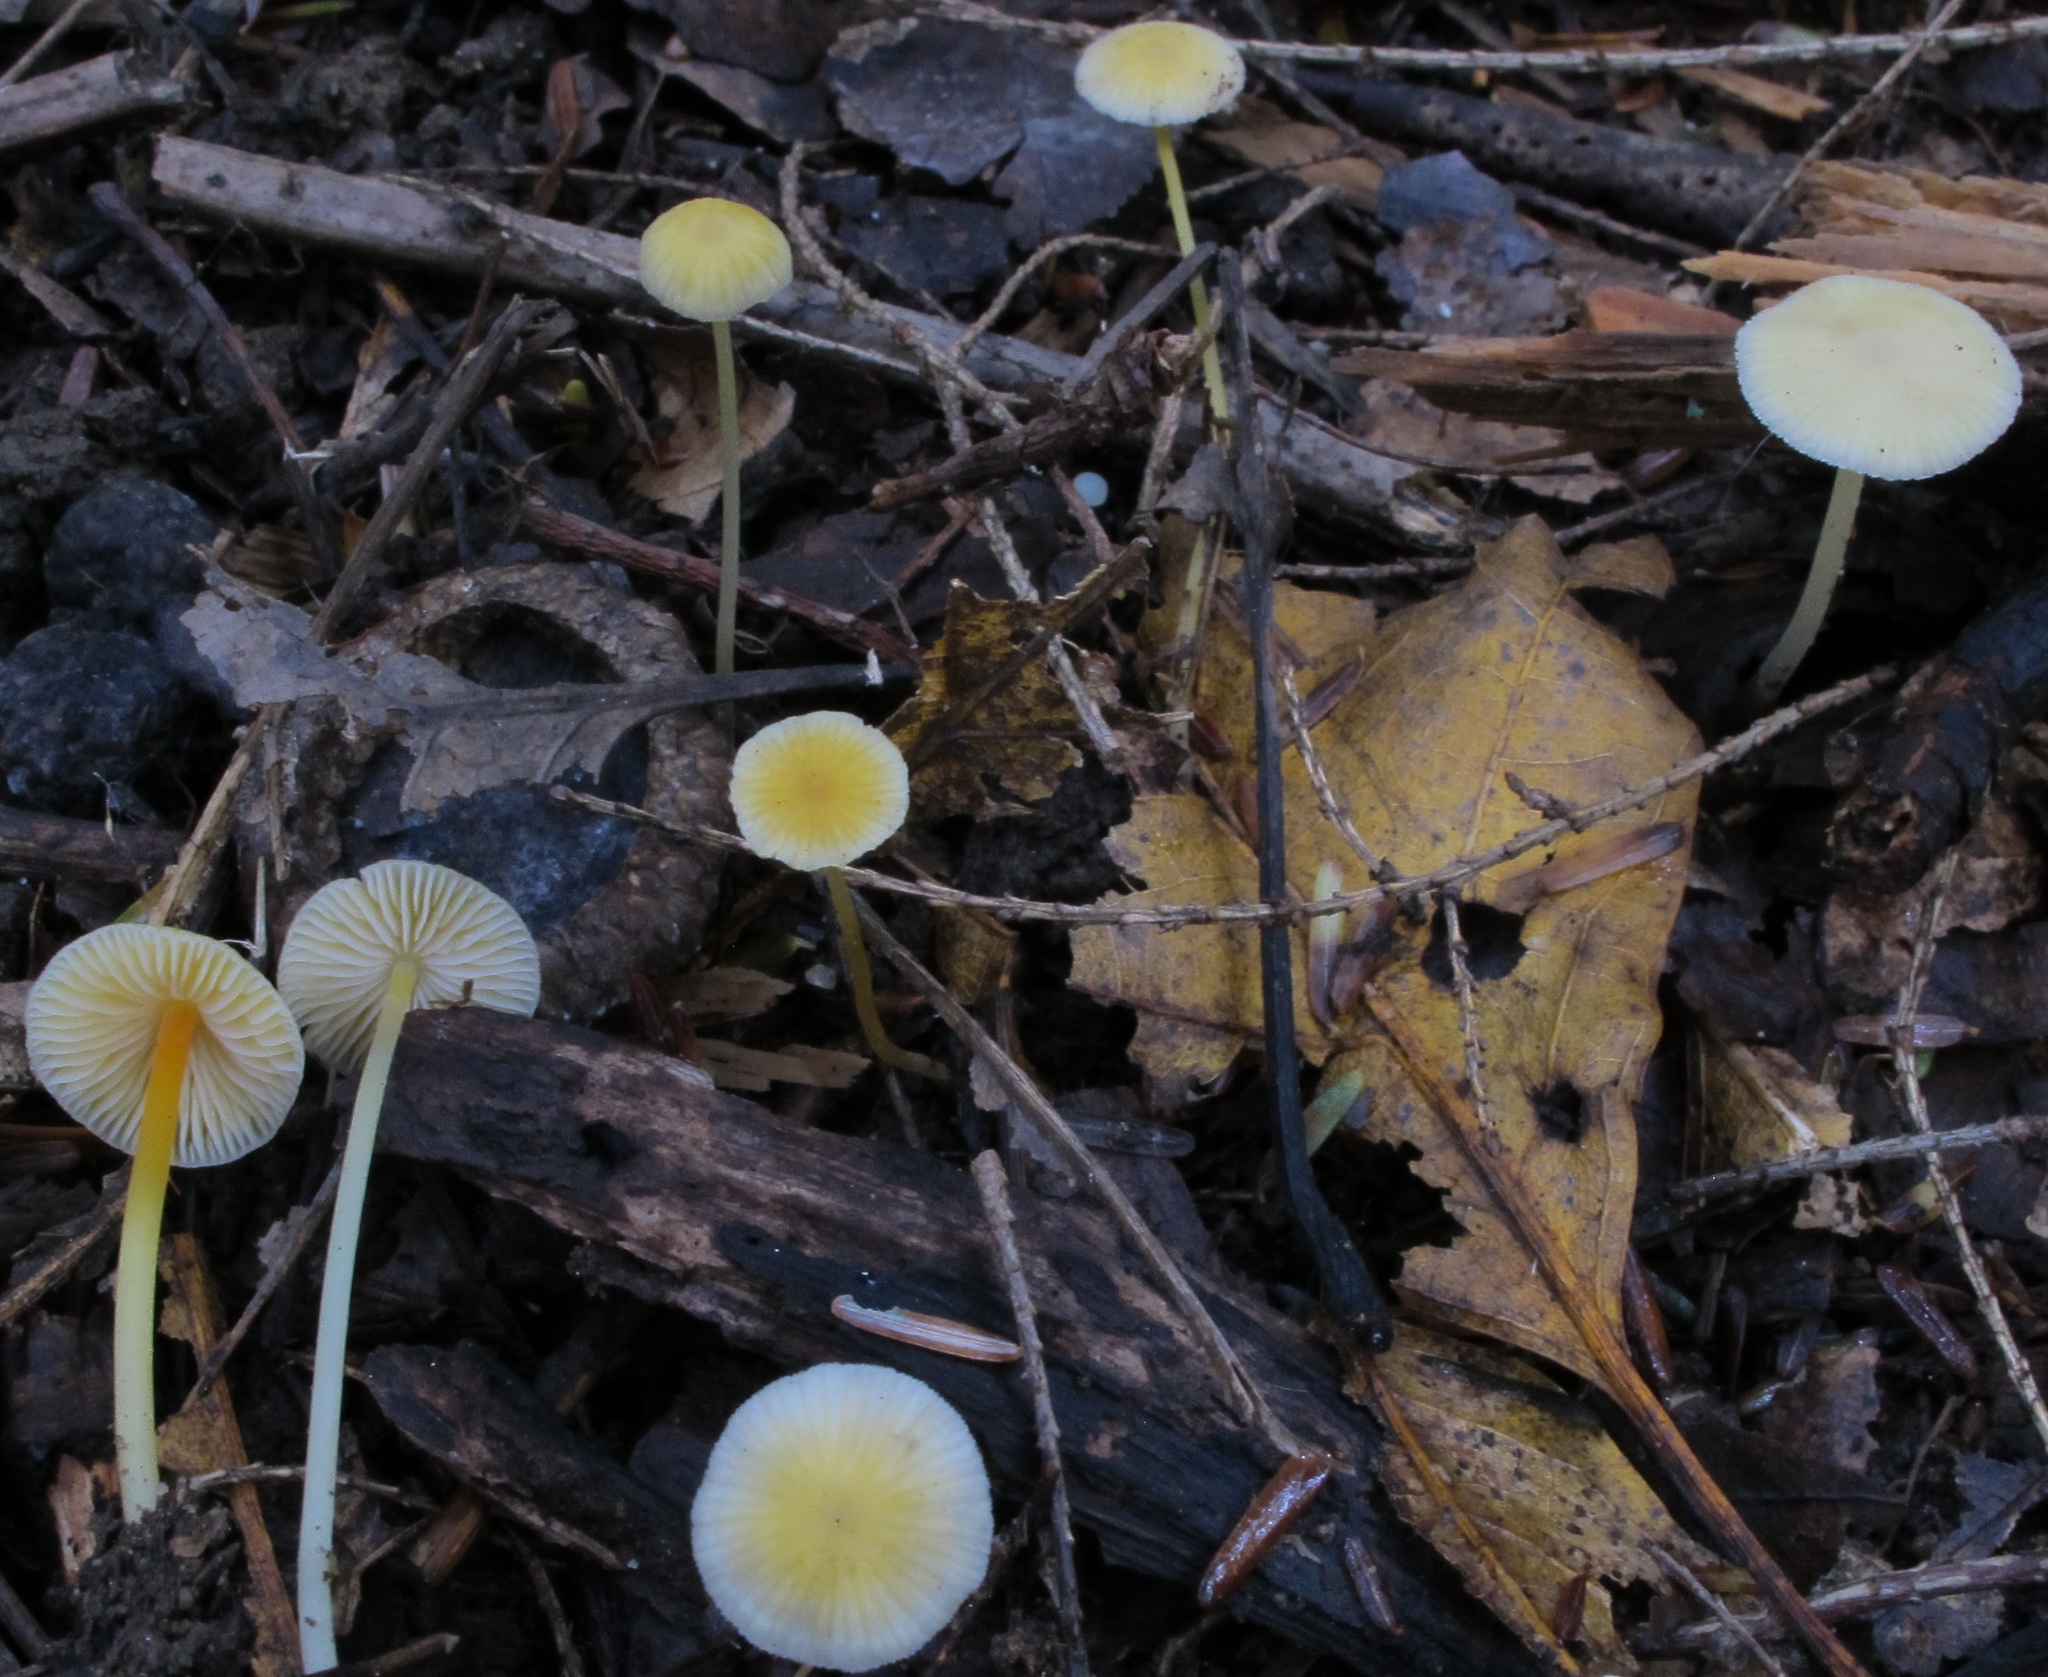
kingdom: Fungi
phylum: Basidiomycota
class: Agaricomycetes
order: Agaricales
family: Mycenaceae
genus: Mycena
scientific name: Mycena crocea
